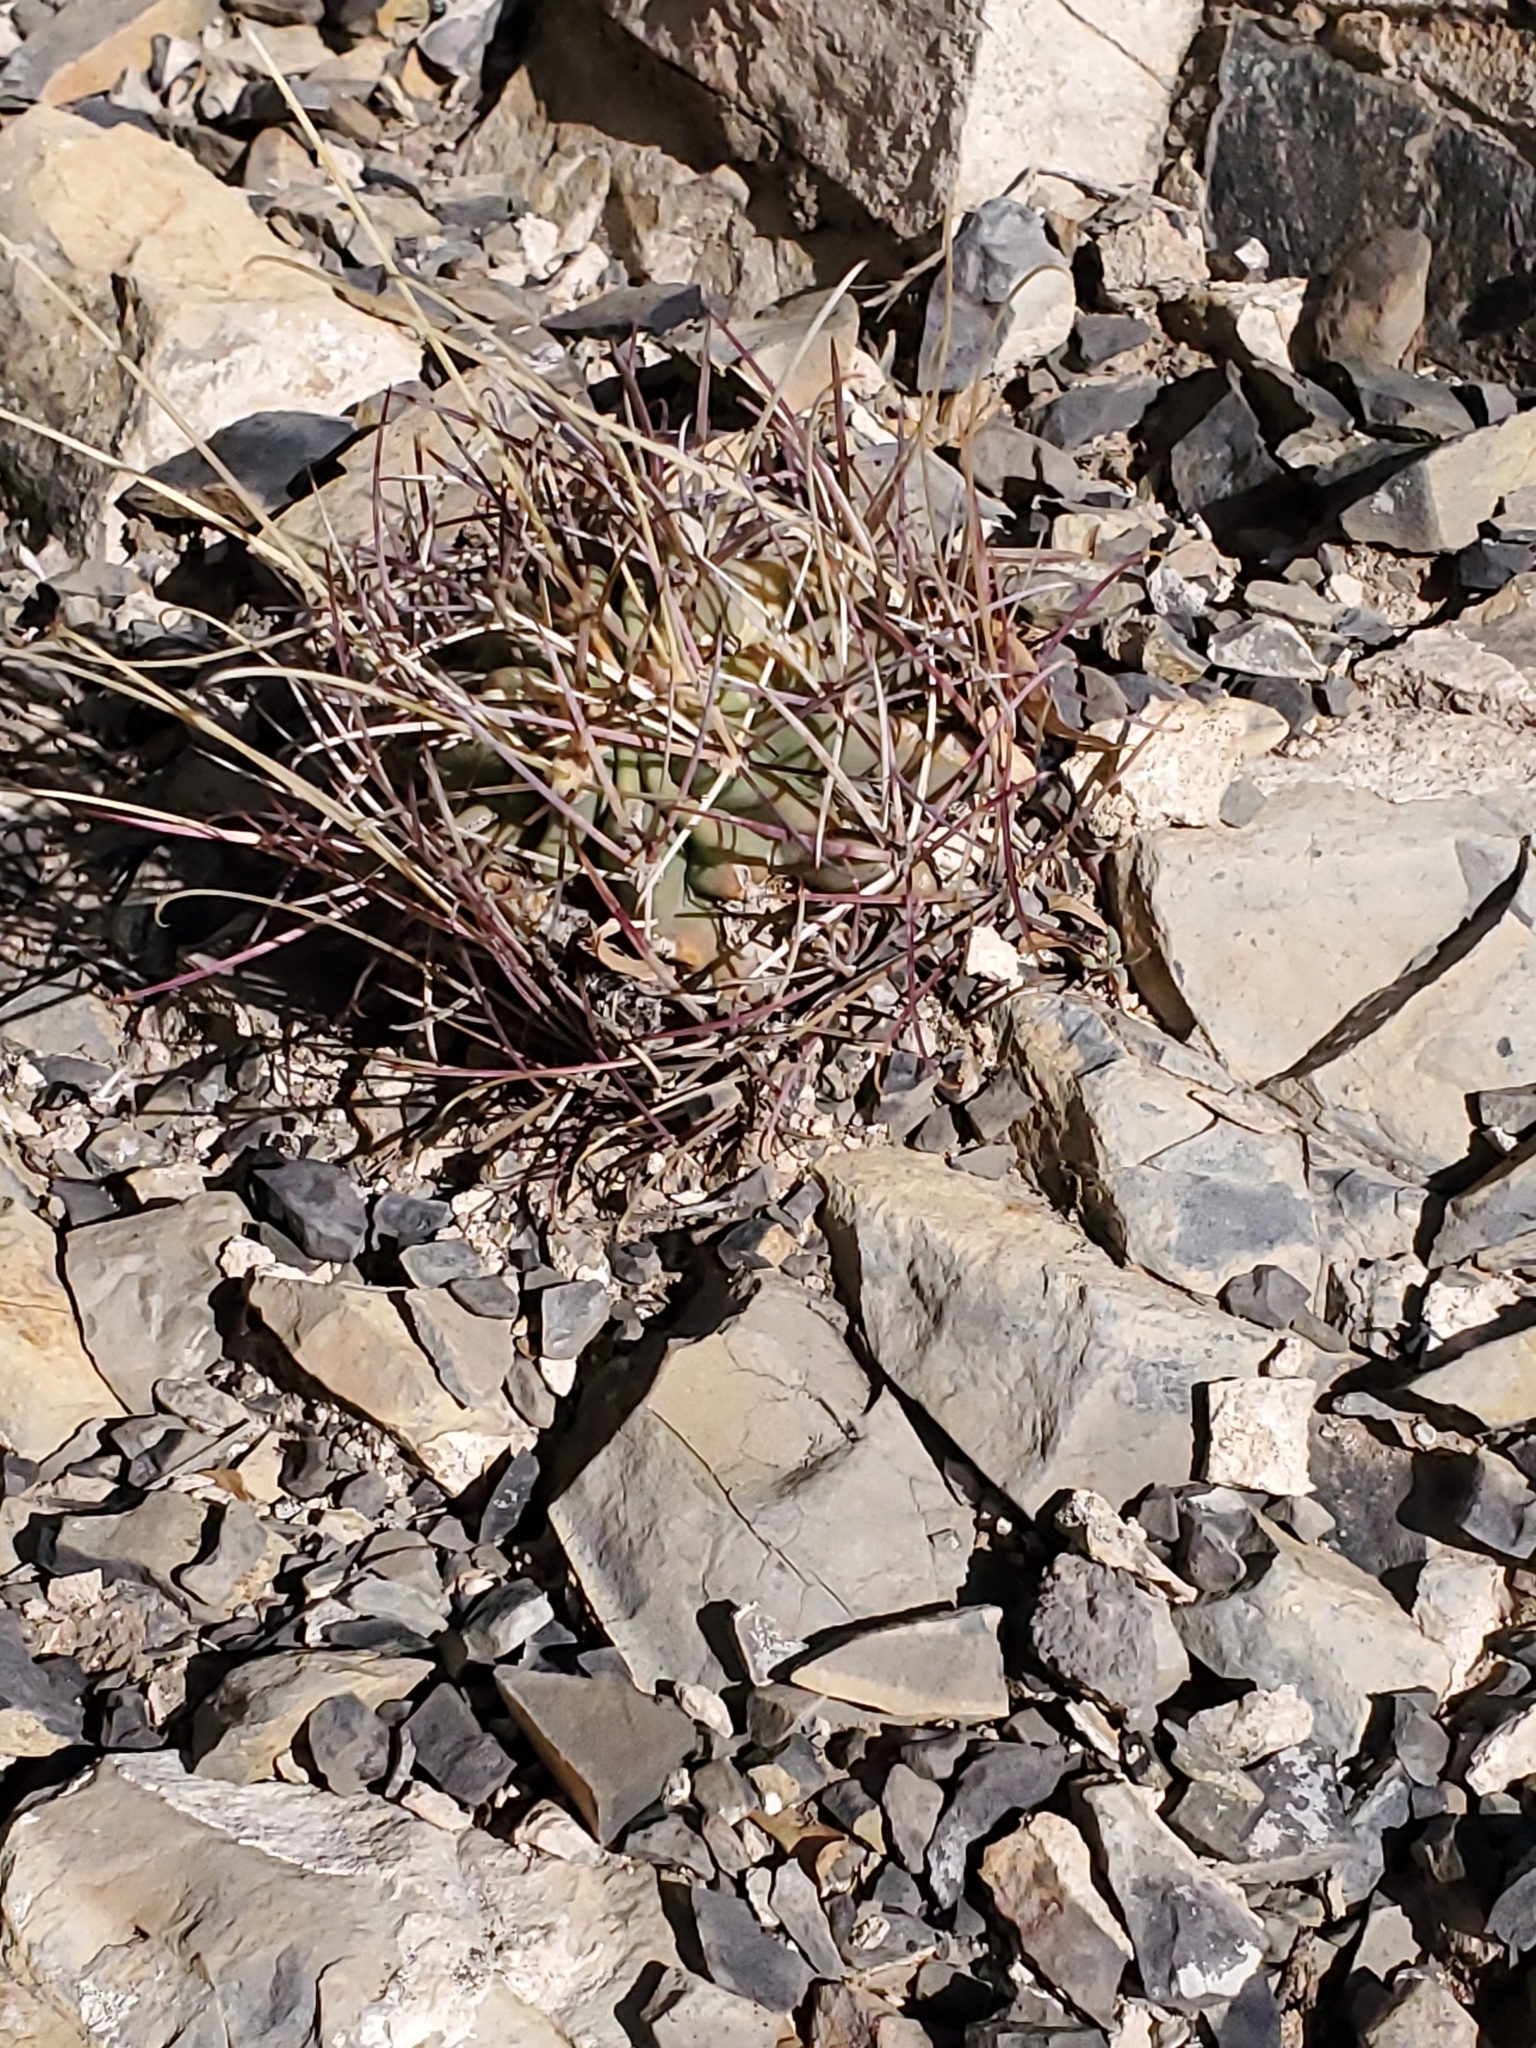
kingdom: Plantae
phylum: Tracheophyta
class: Magnoliopsida
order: Caryophyllales
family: Cactaceae
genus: Ferocactus
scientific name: Ferocactus uncinatus
